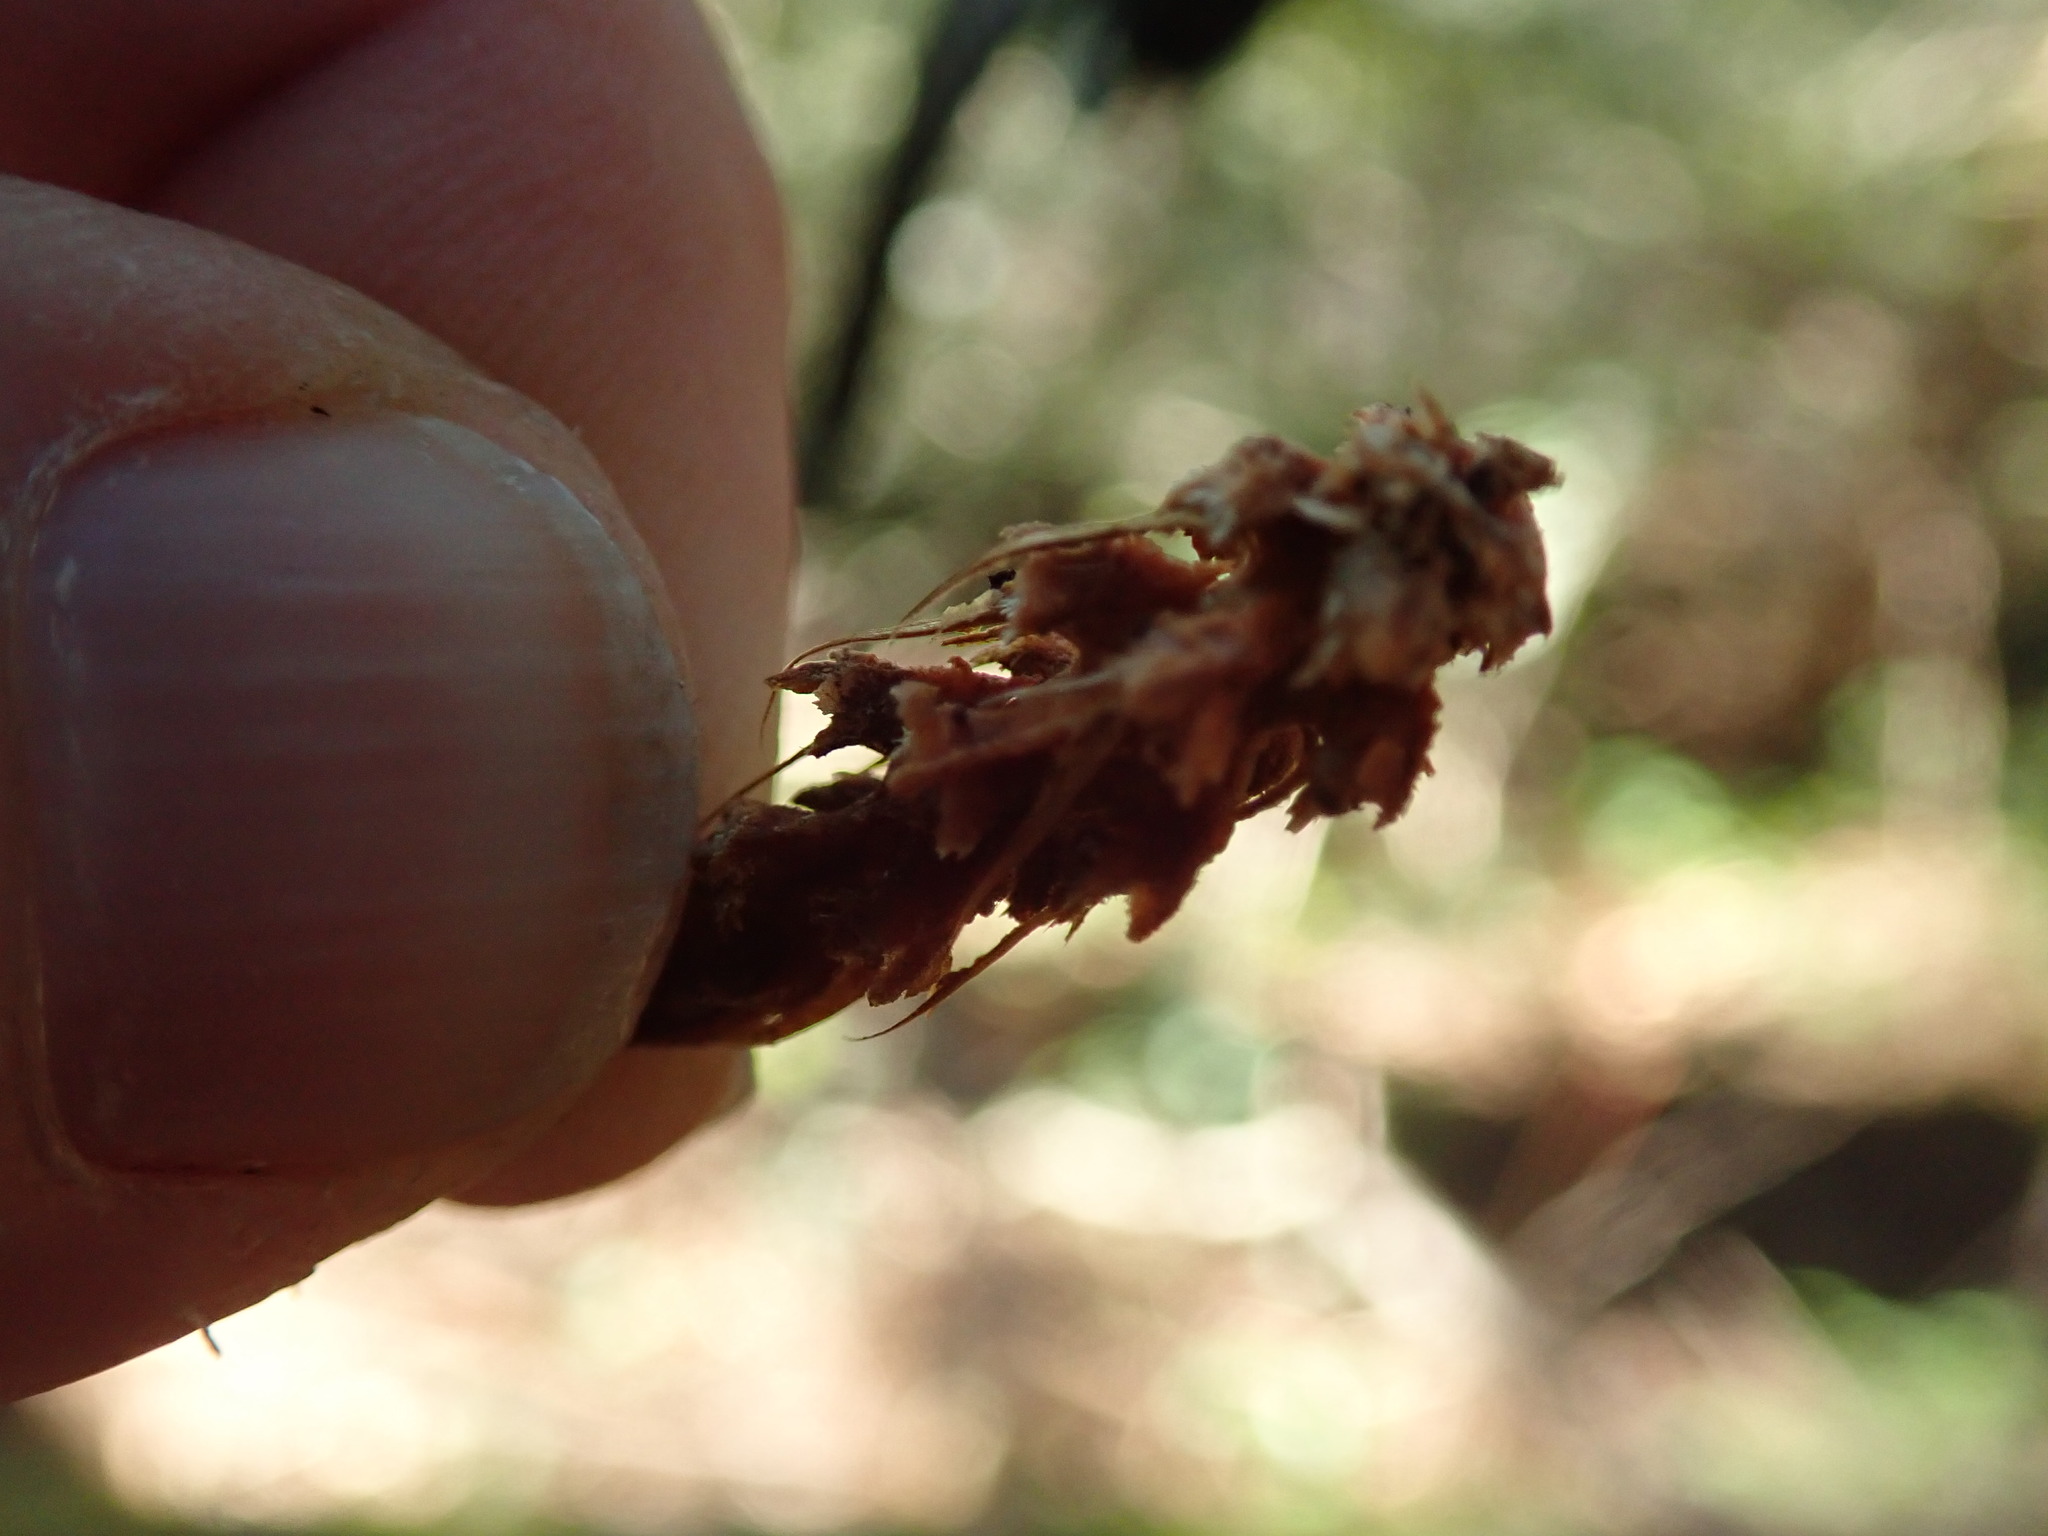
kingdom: Plantae
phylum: Tracheophyta
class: Pinopsida
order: Pinales
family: Pinaceae
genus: Pseudotsuga
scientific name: Pseudotsuga menziesii
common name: Douglas fir
